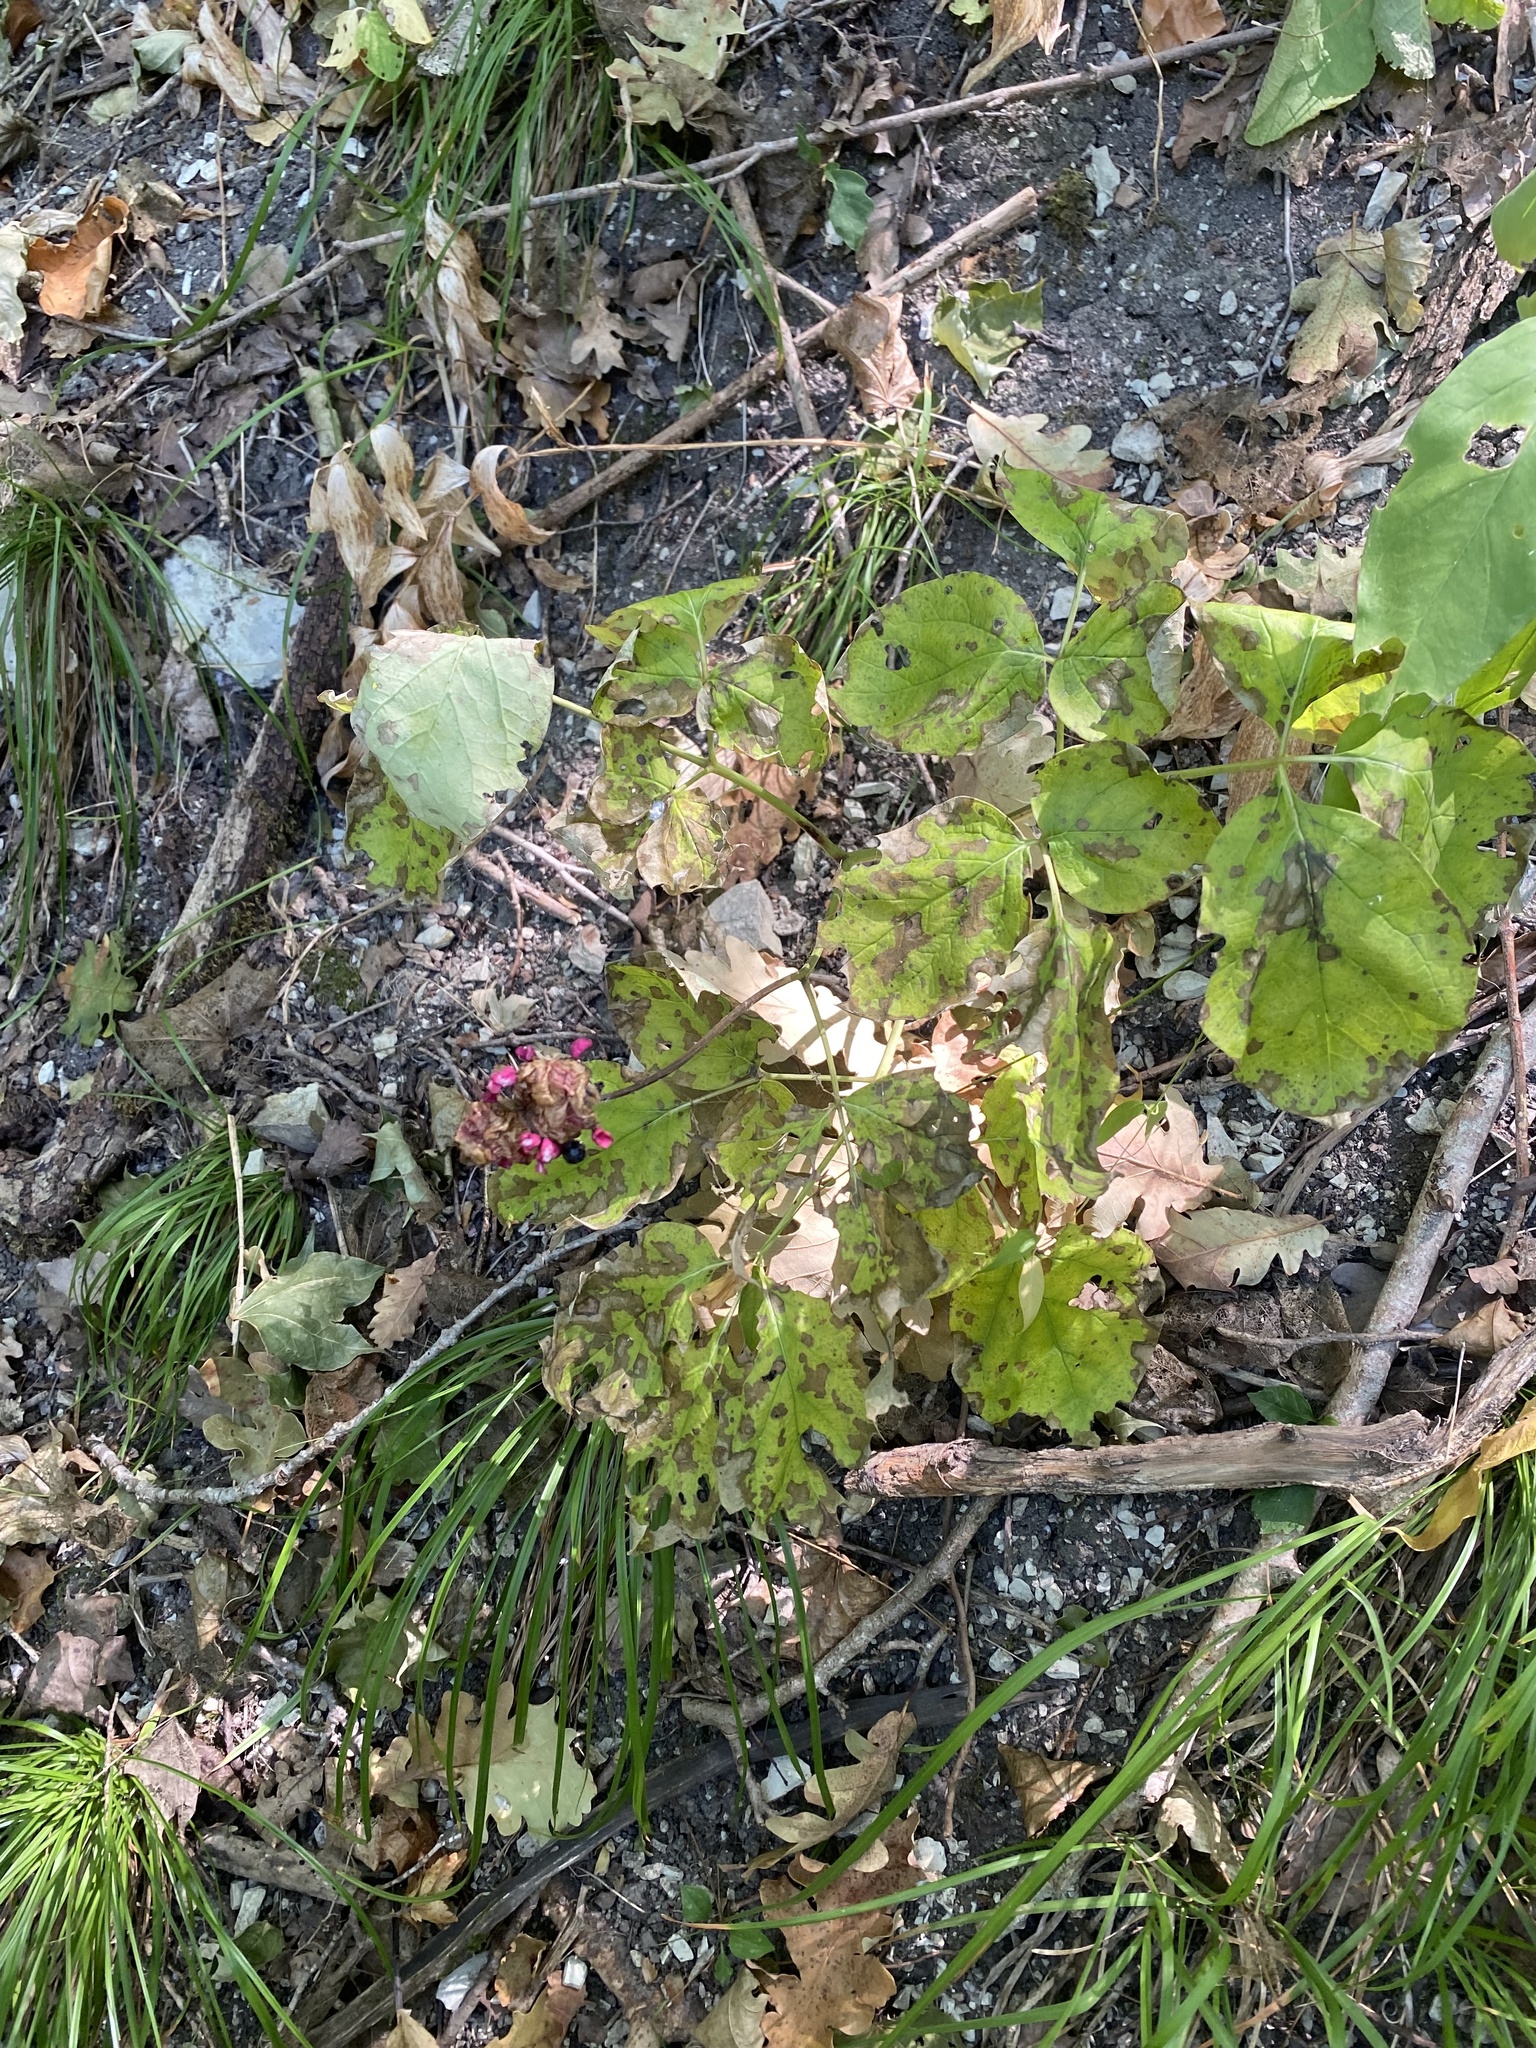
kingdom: Plantae
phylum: Tracheophyta
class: Magnoliopsida
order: Saxifragales
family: Paeoniaceae
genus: Paeonia
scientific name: Paeonia caucasica
